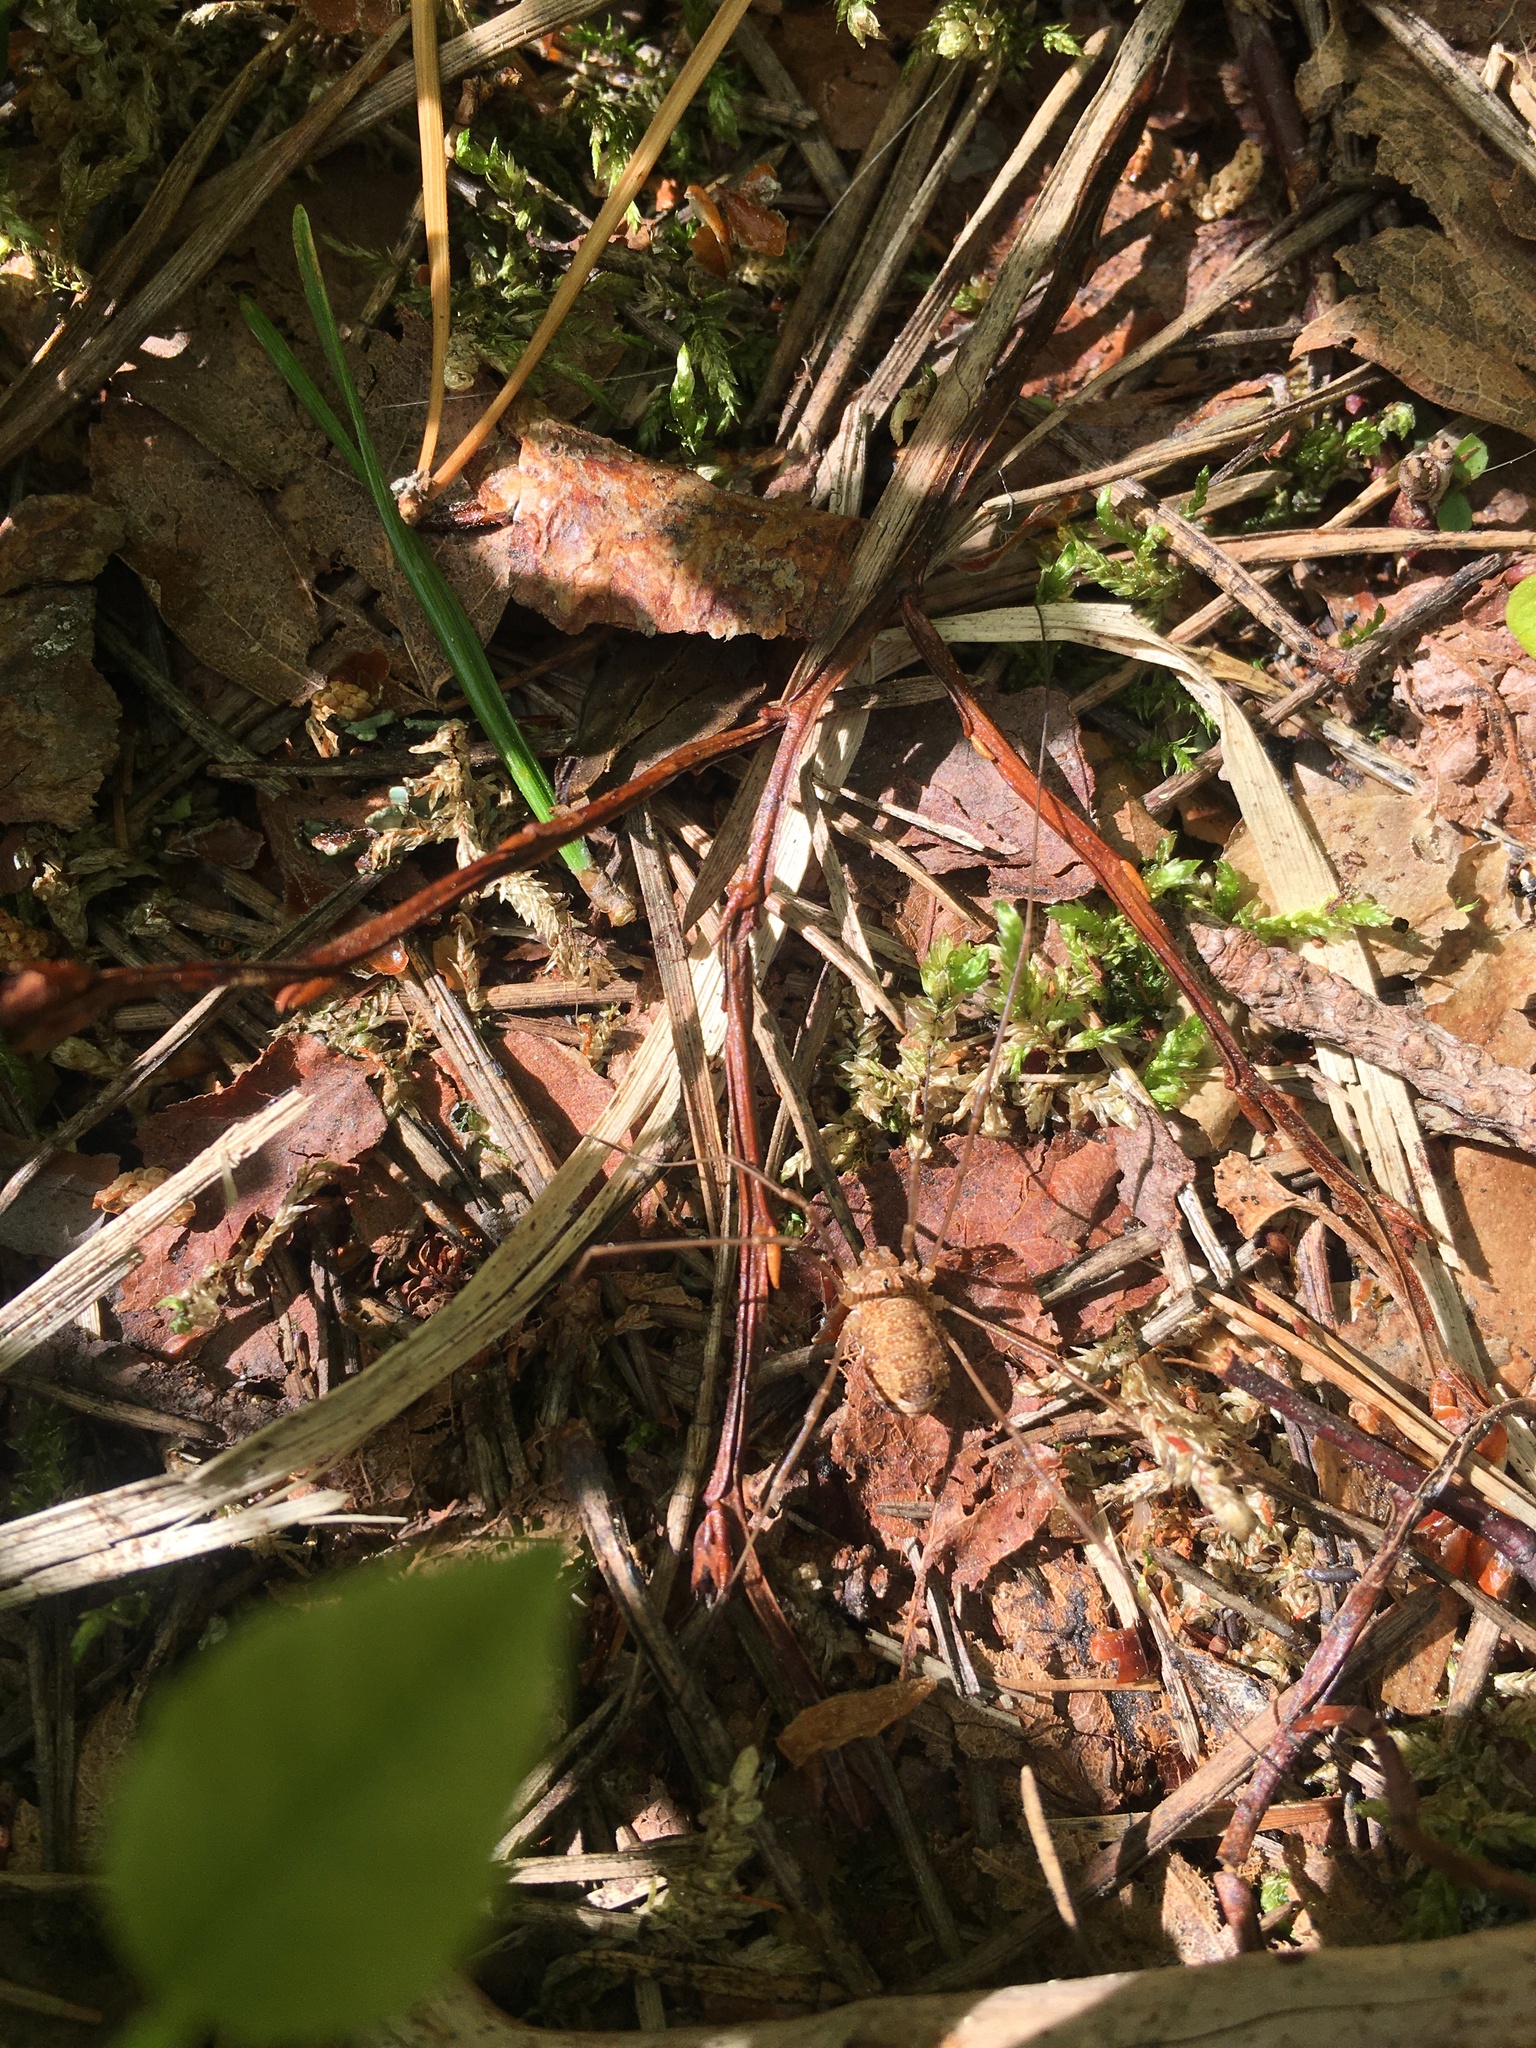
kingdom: Animalia
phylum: Arthropoda
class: Arachnida
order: Opiliones
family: Phalangiidae
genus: Rilaena
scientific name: Rilaena triangularis
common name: Spring harvestman
